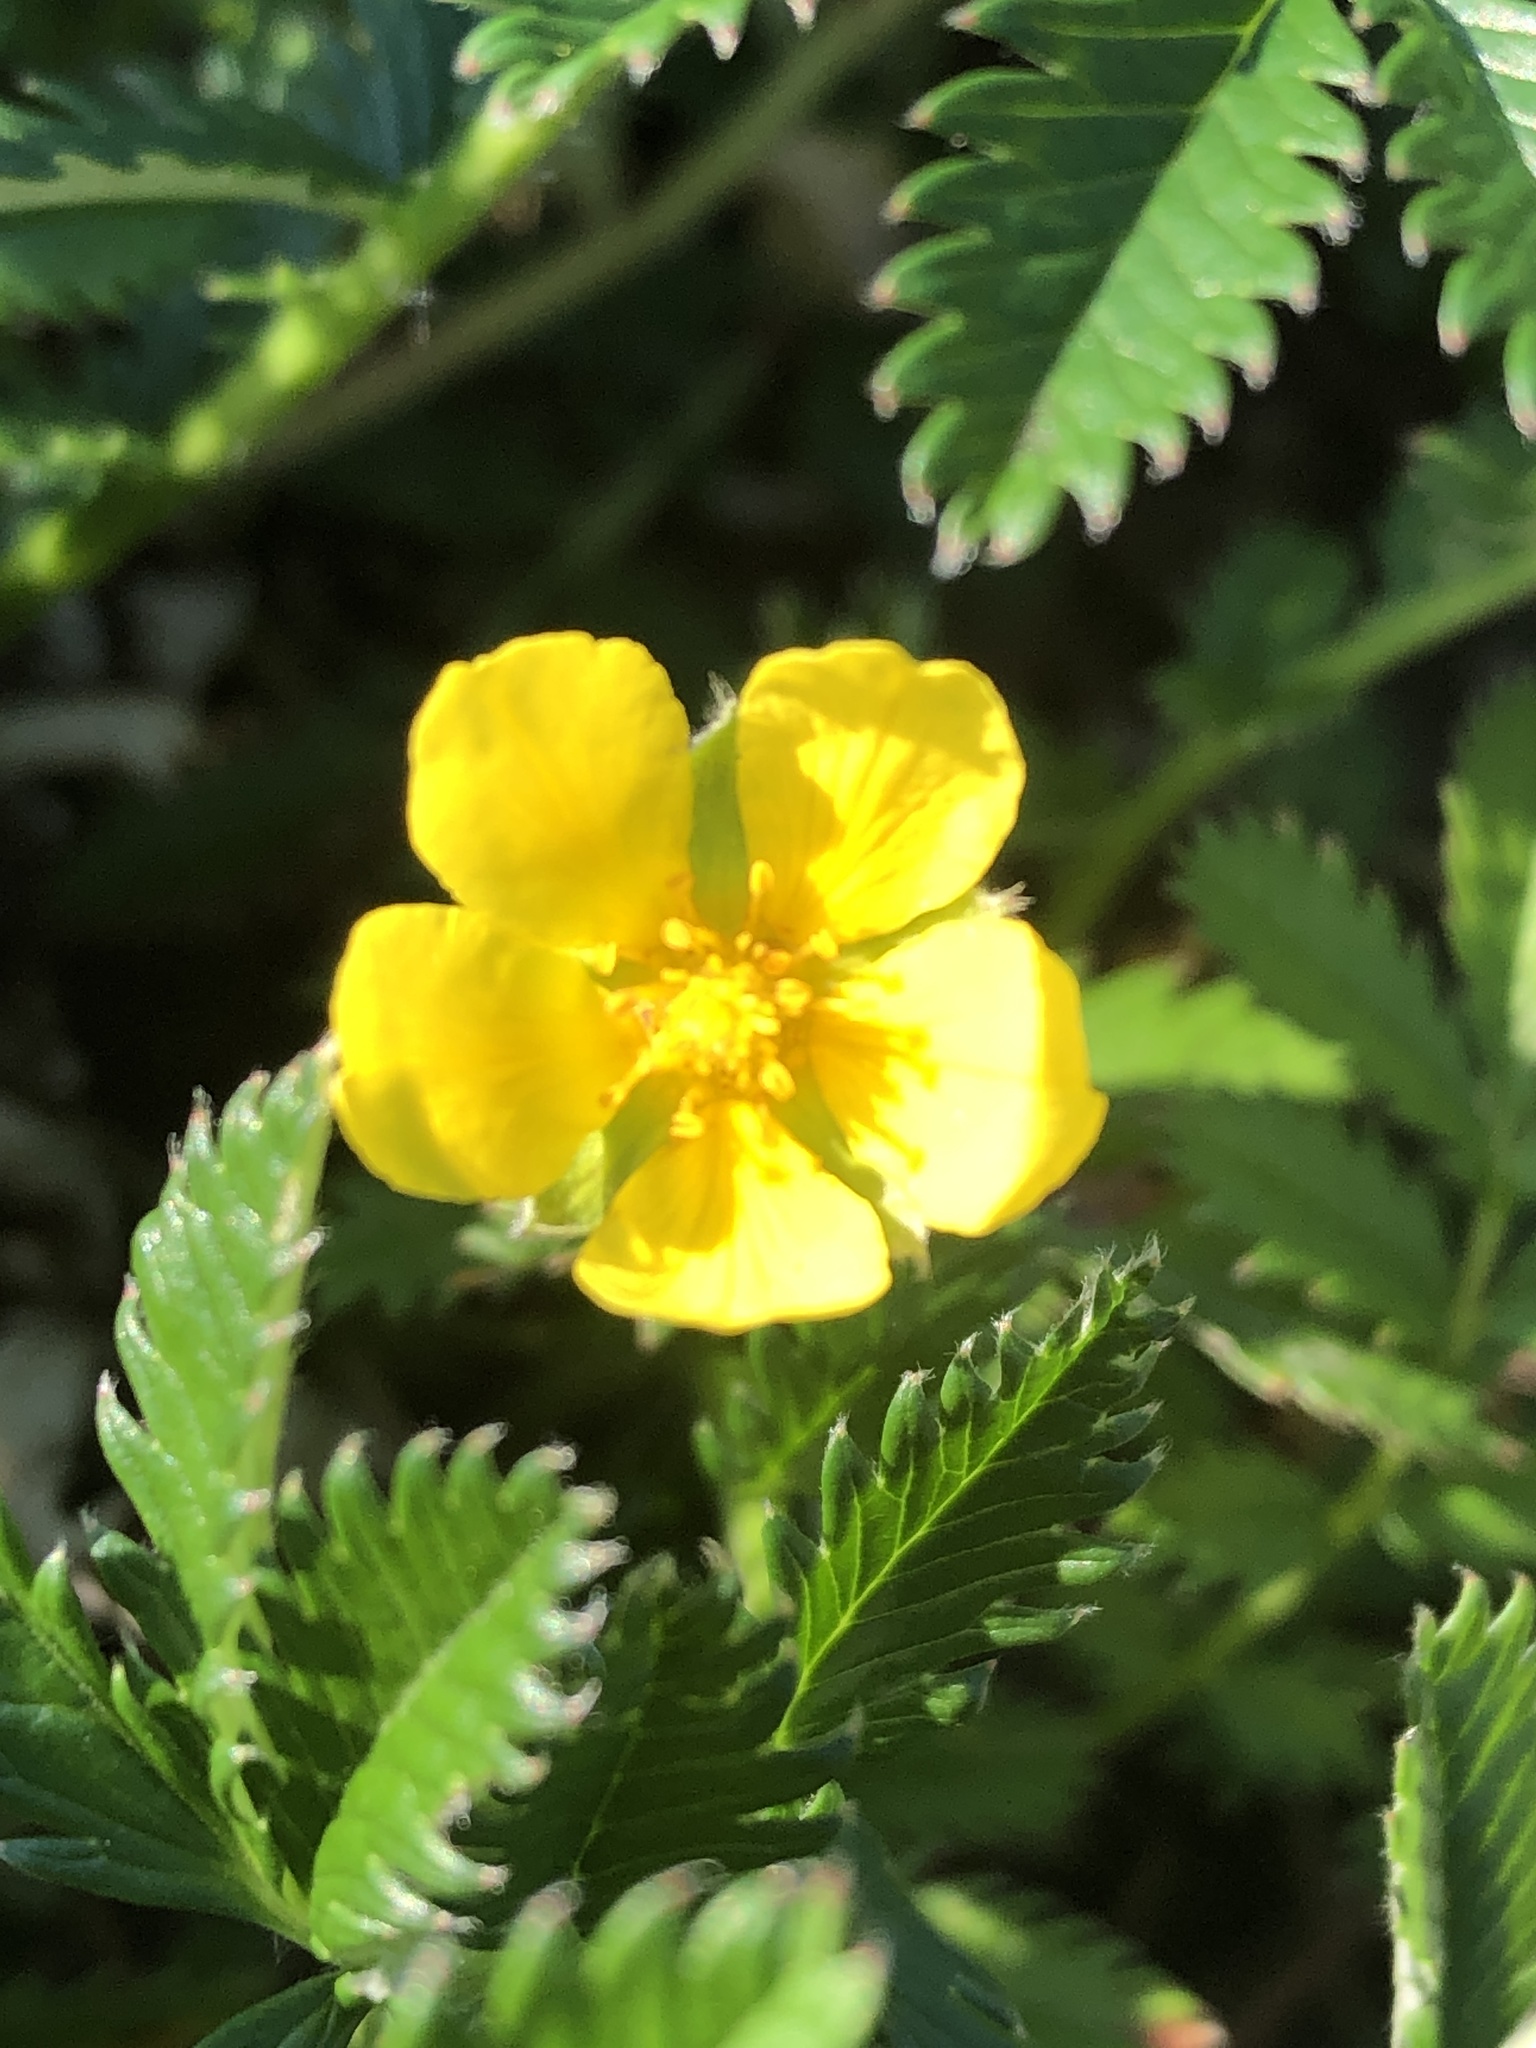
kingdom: Plantae
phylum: Tracheophyta
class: Magnoliopsida
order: Rosales
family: Rosaceae
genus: Argentina
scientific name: Argentina anserina
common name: Common silverweed
